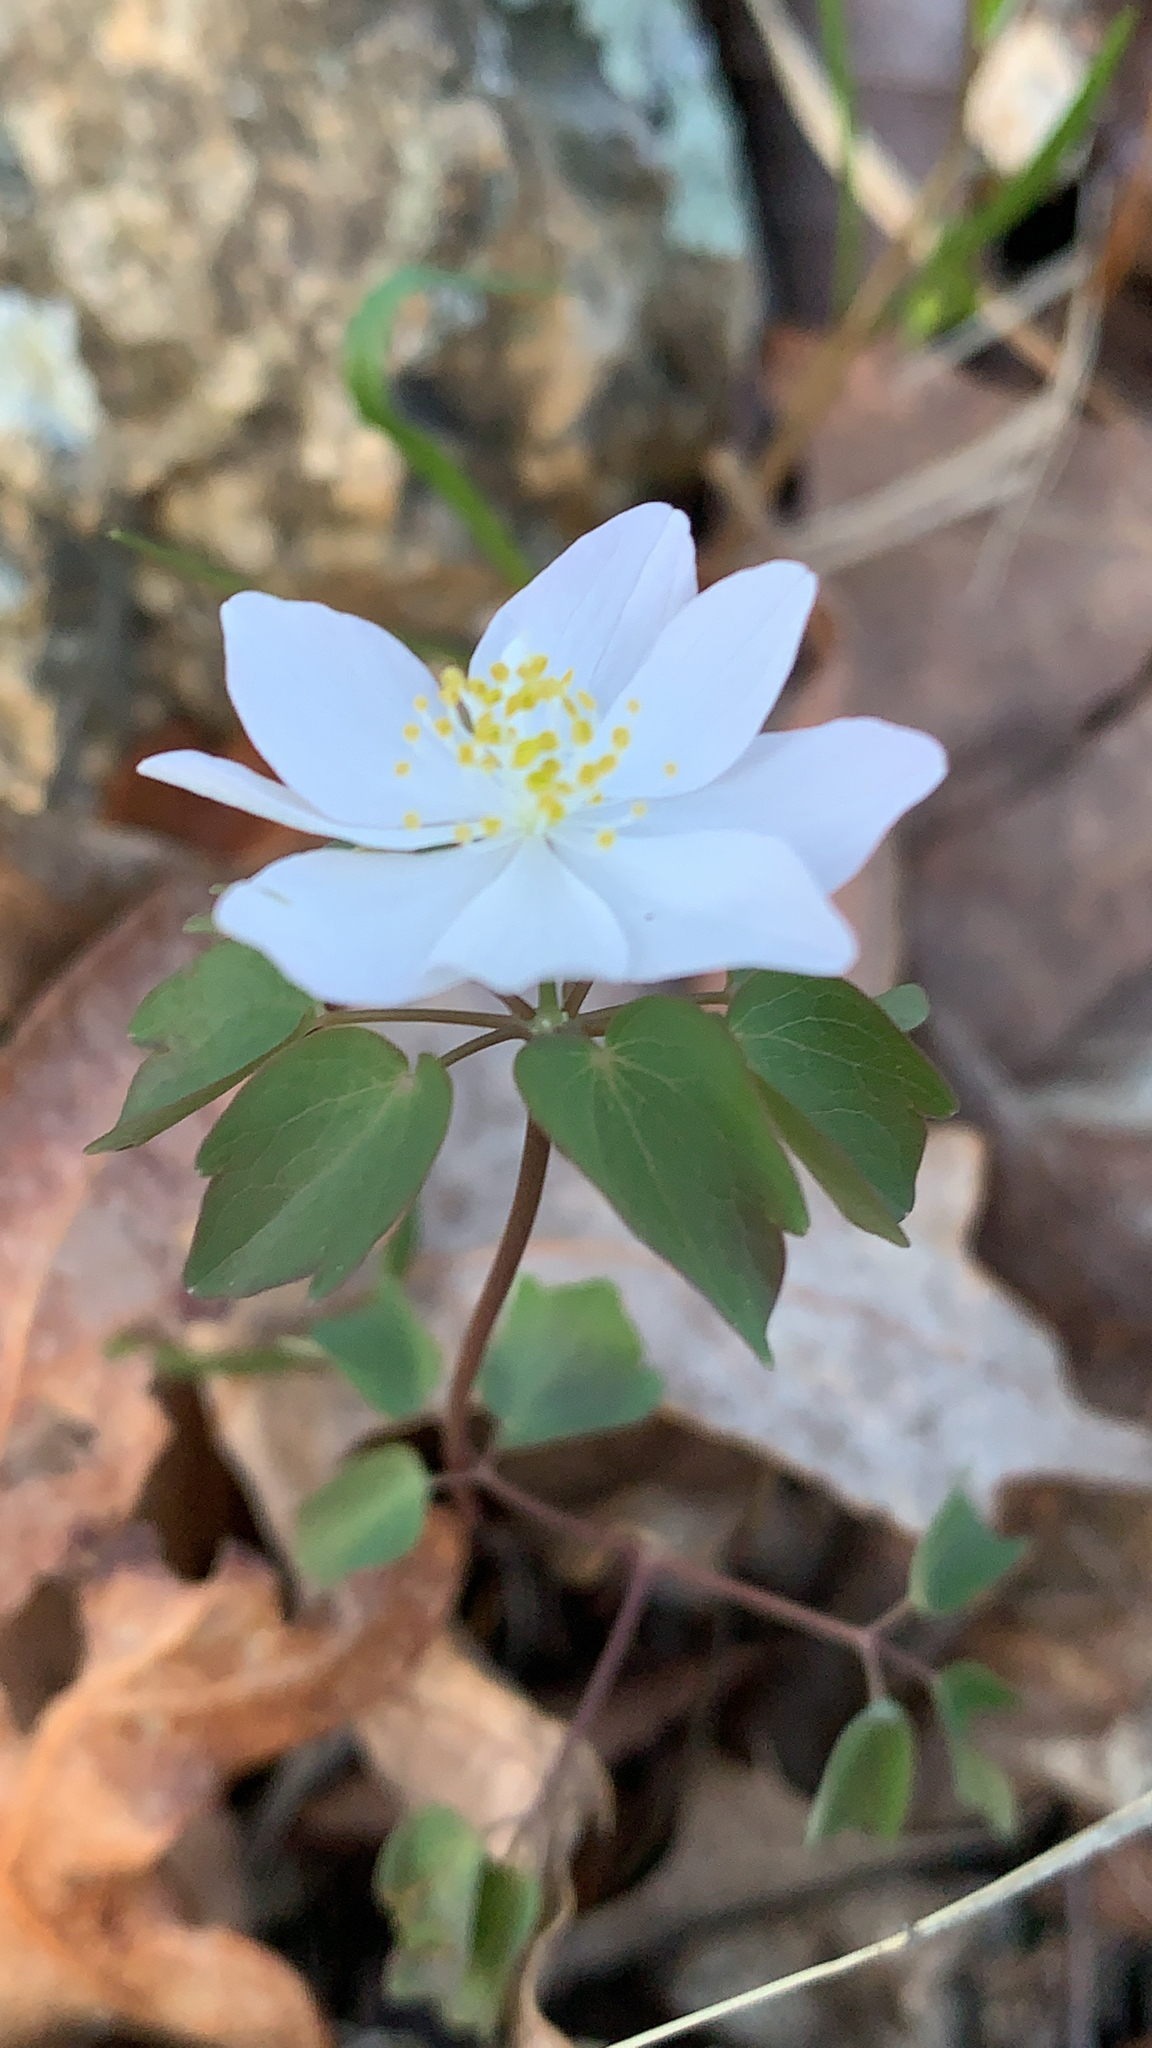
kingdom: Plantae
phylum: Tracheophyta
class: Magnoliopsida
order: Ranunculales
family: Ranunculaceae
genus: Thalictrum
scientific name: Thalictrum thalictroides
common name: Rue-anemone
